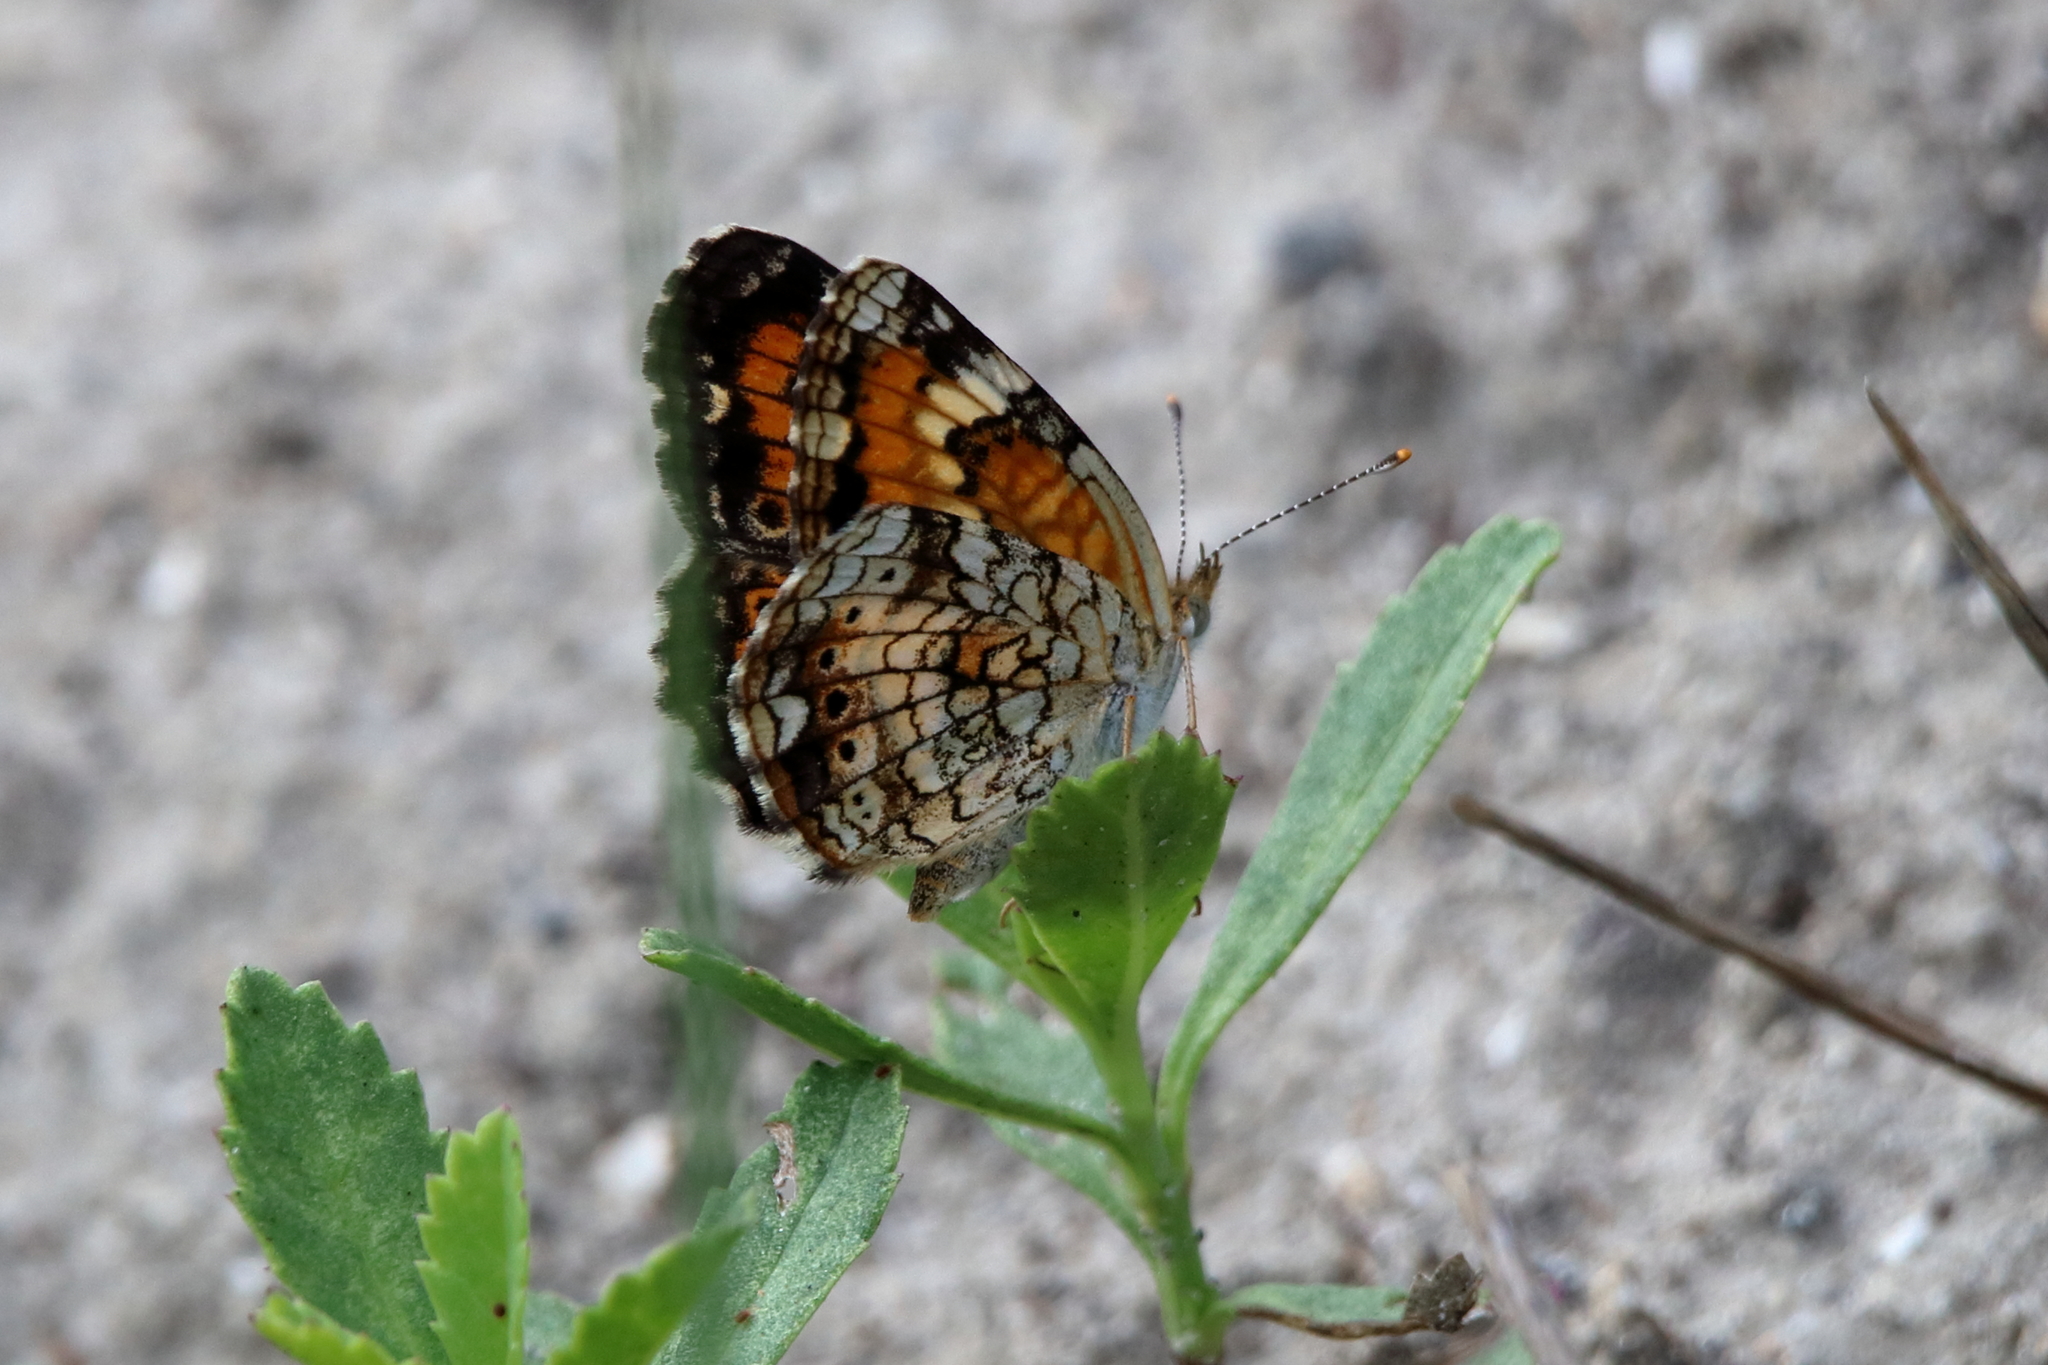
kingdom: Animalia
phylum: Arthropoda
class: Insecta
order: Lepidoptera
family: Nymphalidae
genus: Phyciodes
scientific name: Phyciodes phaon
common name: Phaon crescent
